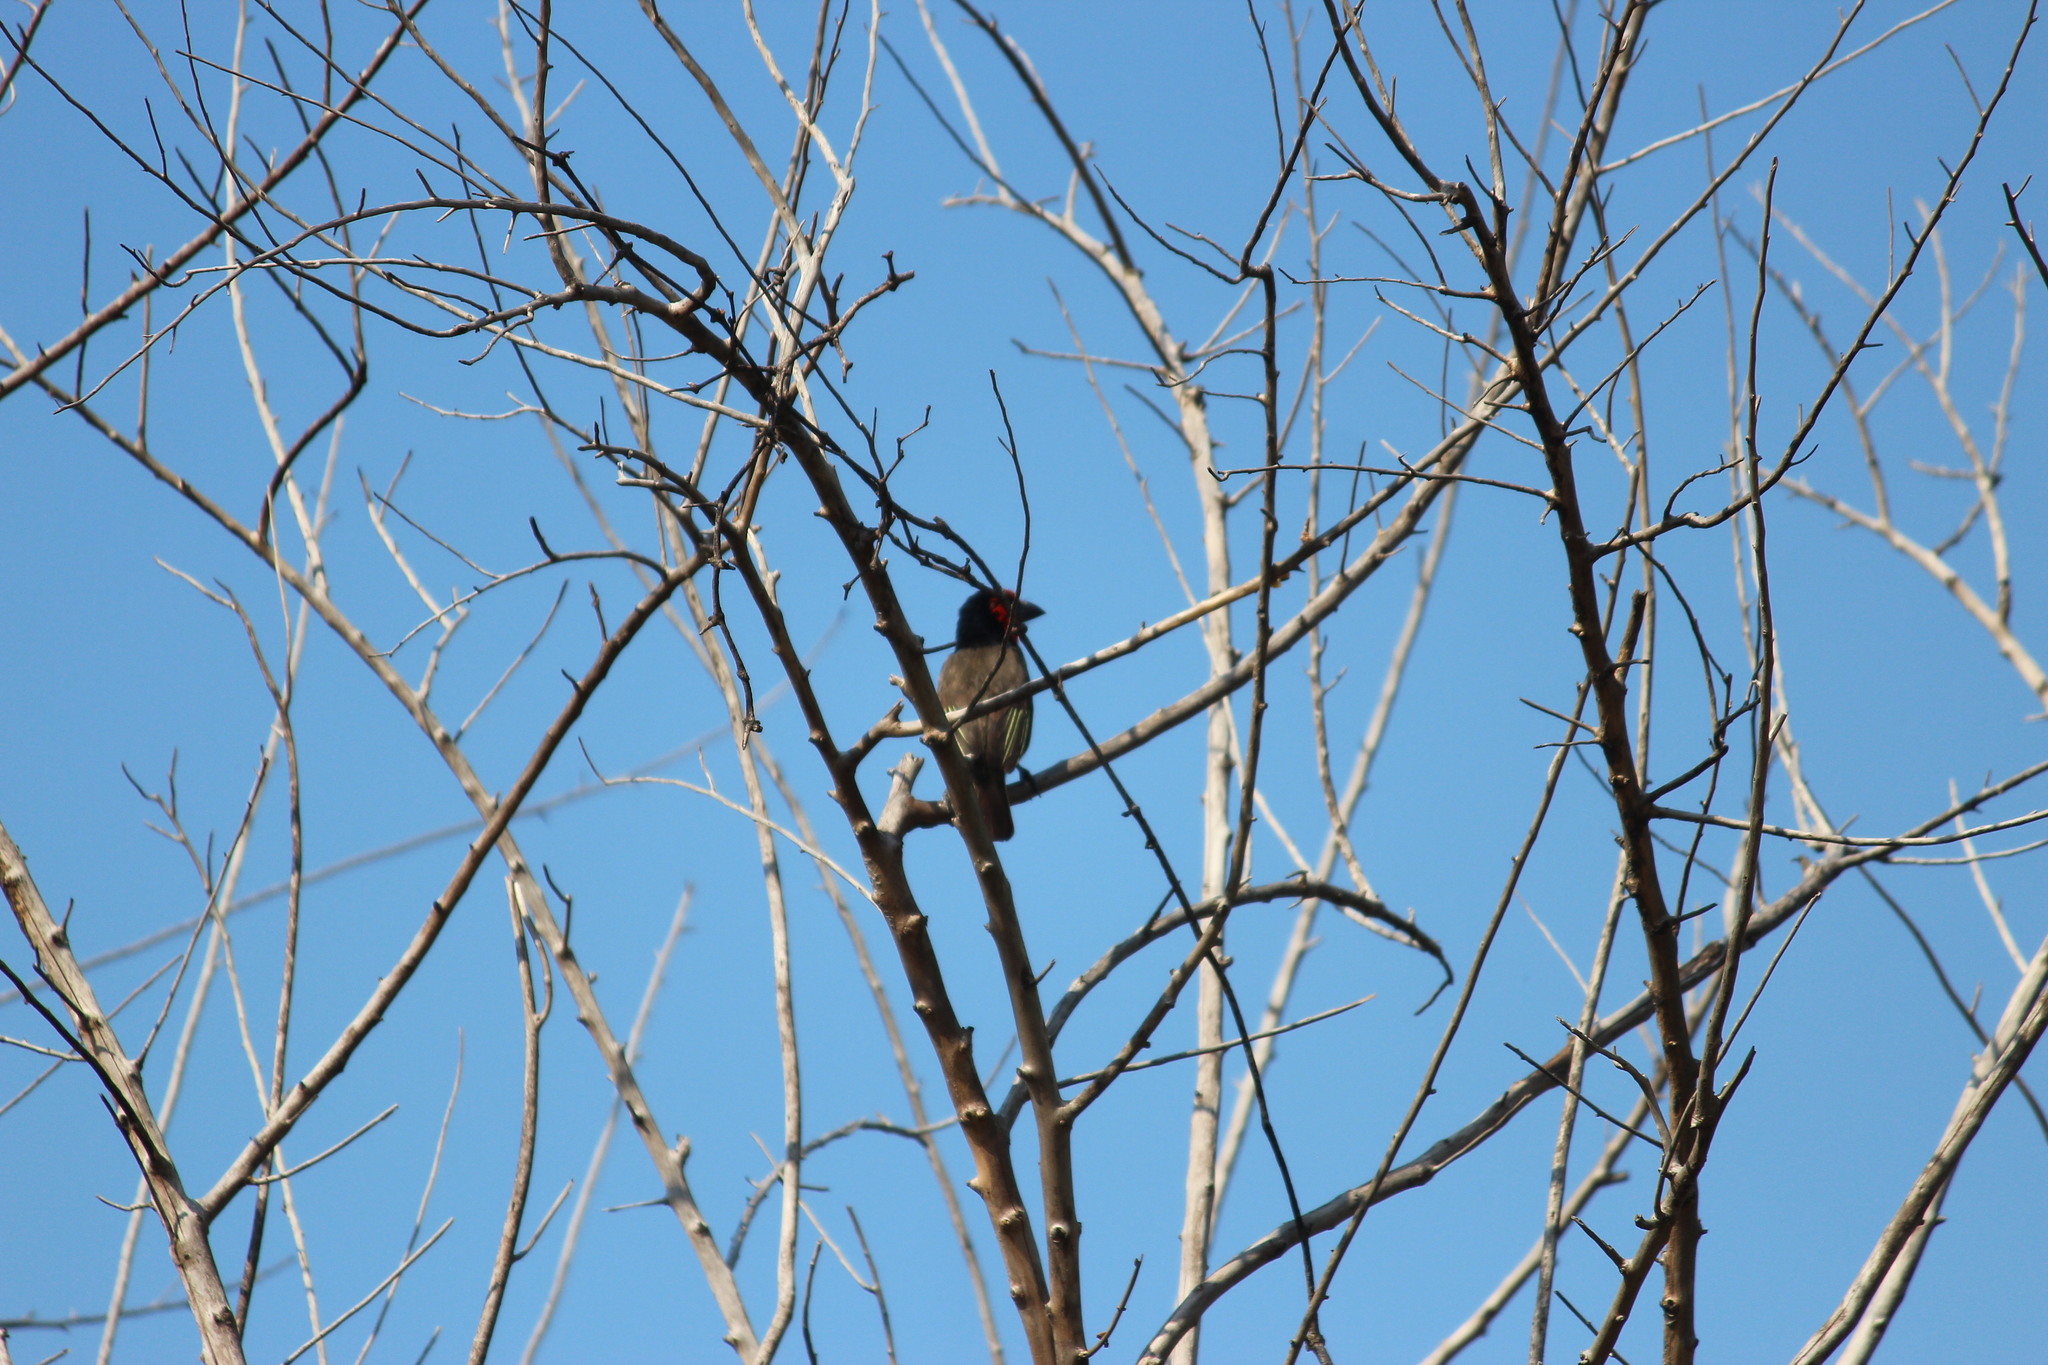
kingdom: Animalia
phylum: Chordata
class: Aves
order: Piciformes
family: Lybiidae
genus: Lybius
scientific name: Lybius torquatus
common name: Black-collared barbet
